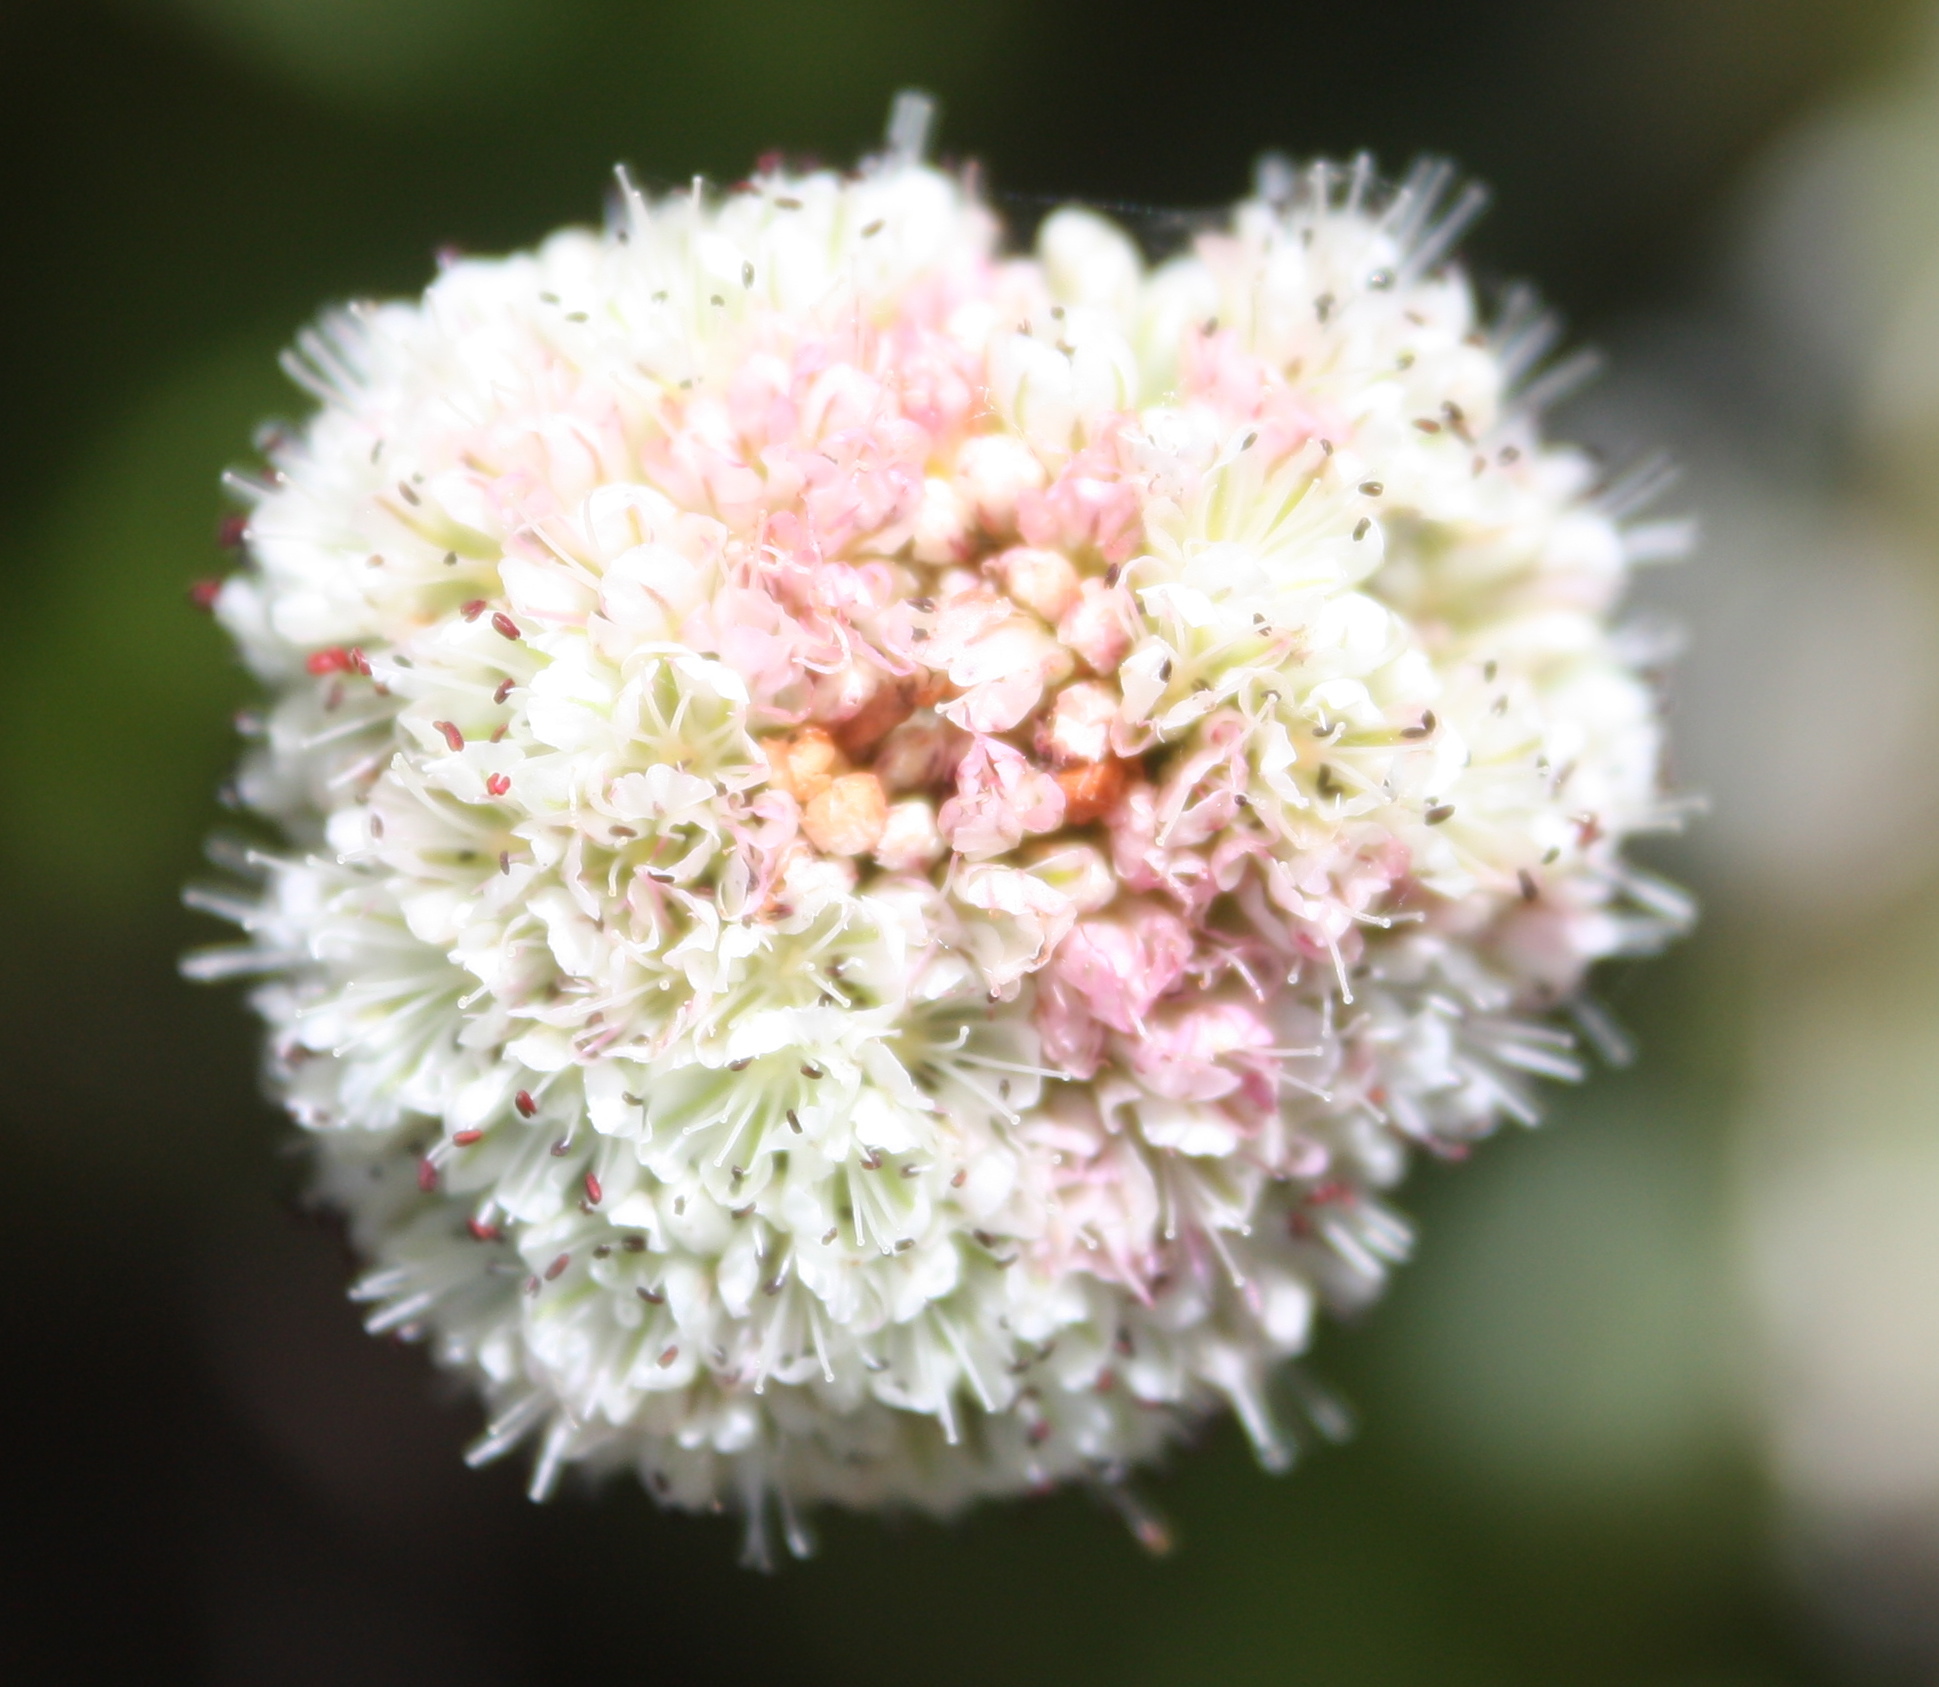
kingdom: Plantae
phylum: Tracheophyta
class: Magnoliopsida
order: Caryophyllales
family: Polygonaceae
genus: Eriogonum
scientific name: Eriogonum latifolium
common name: Seaside wild buckwheat
